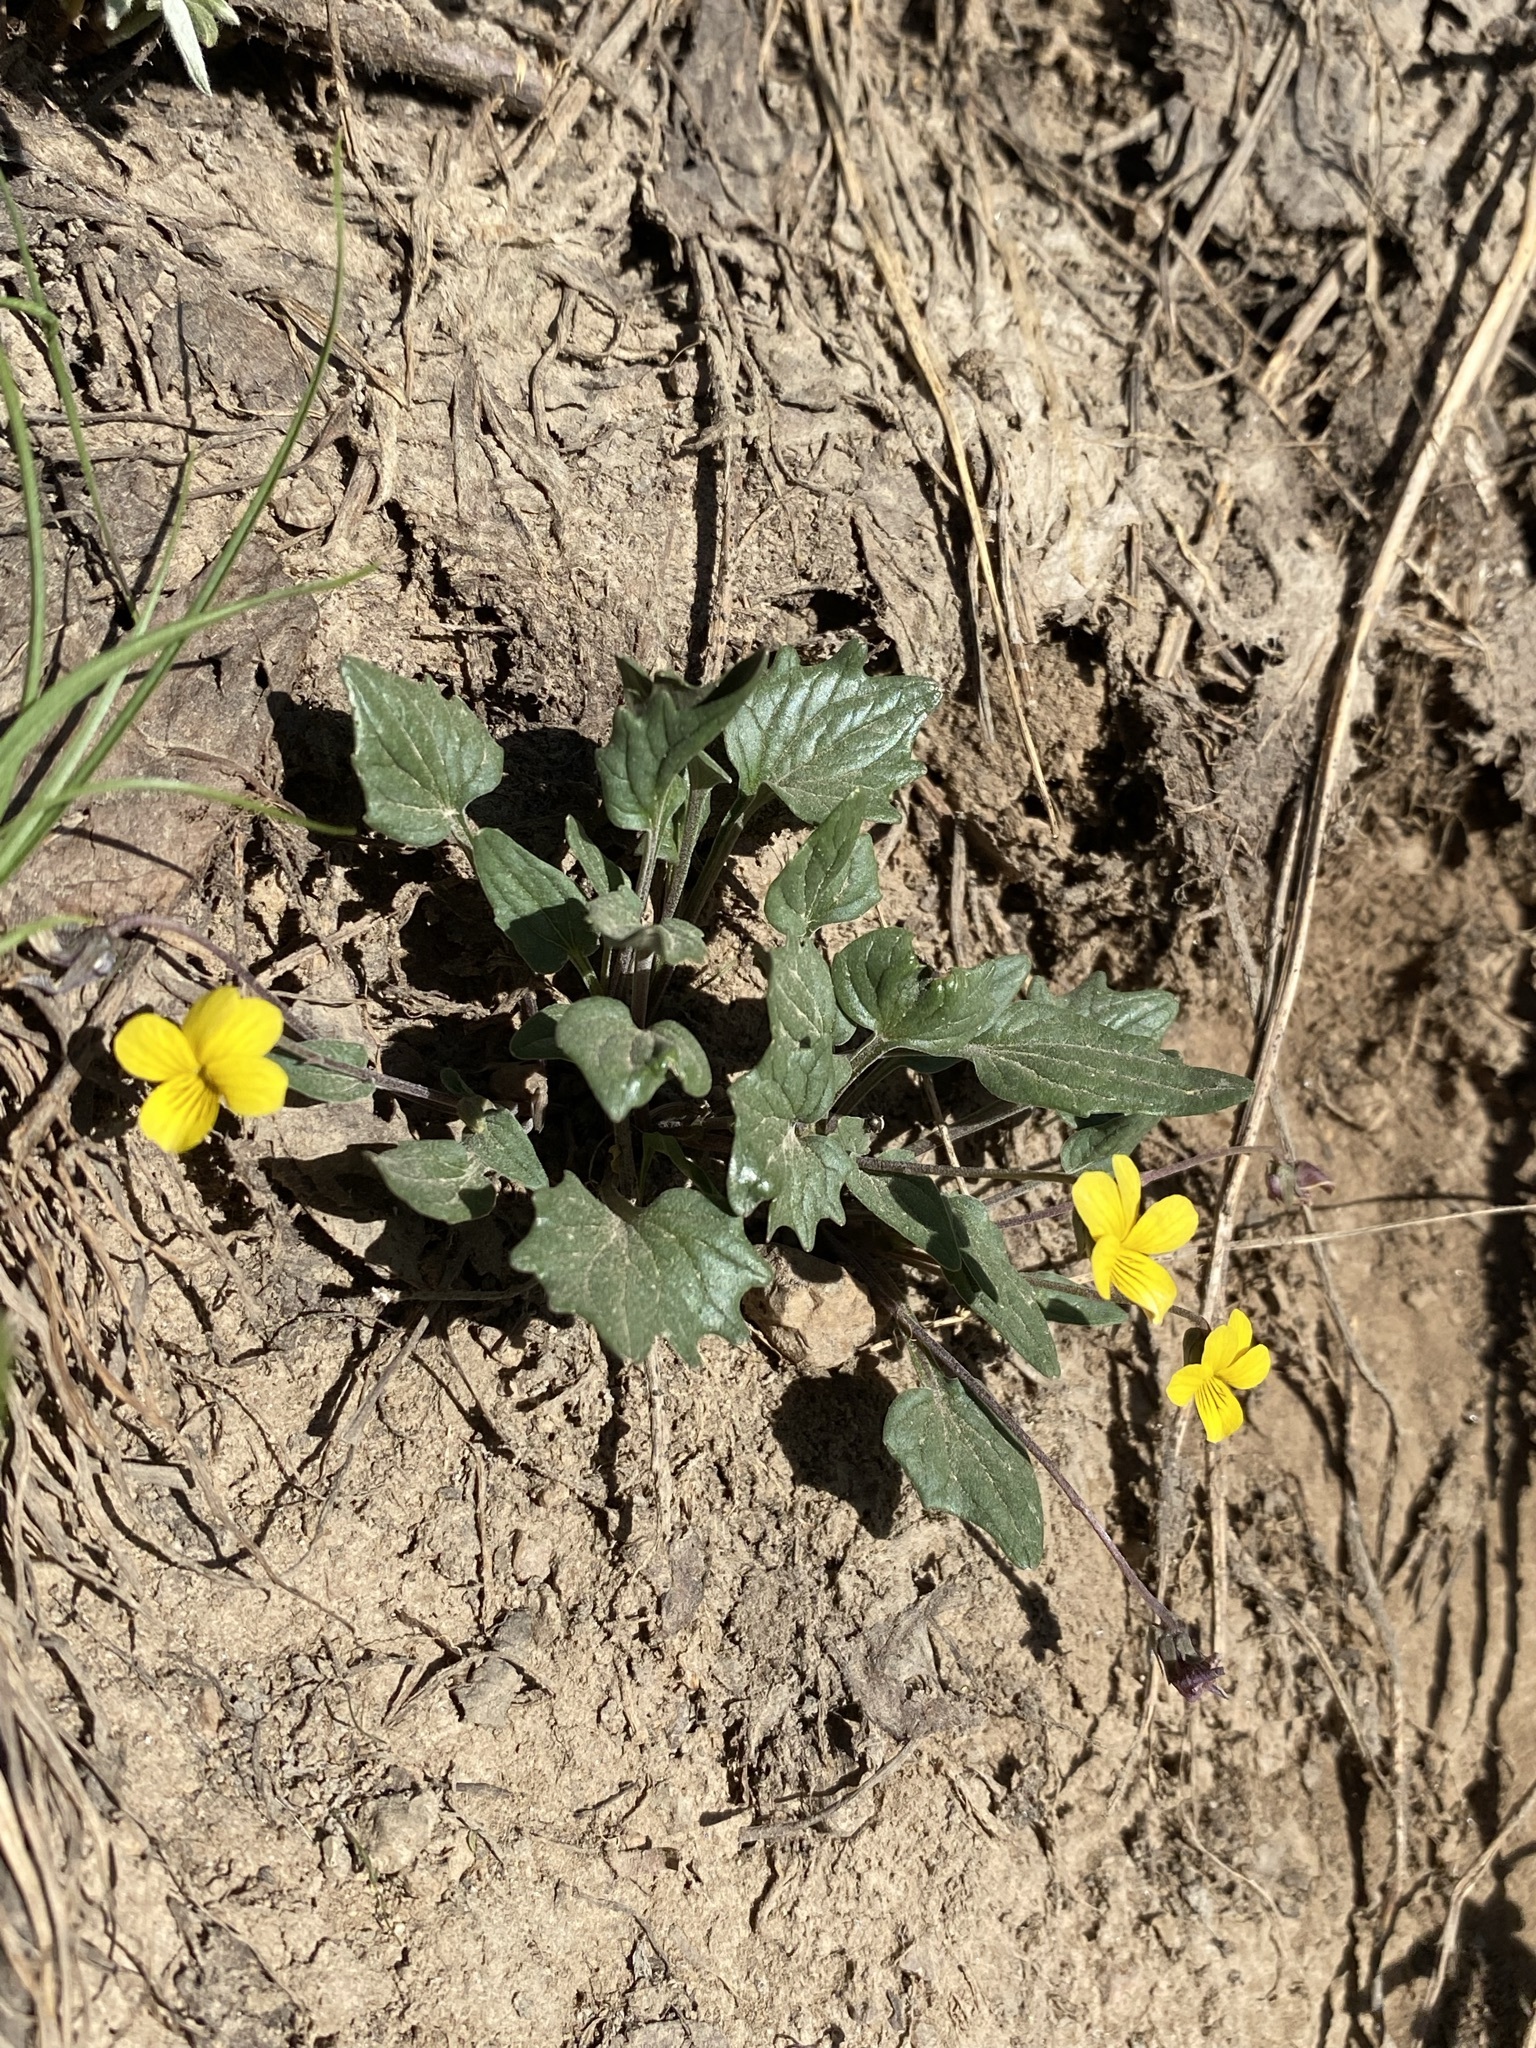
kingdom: Plantae
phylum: Tracheophyta
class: Magnoliopsida
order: Malpighiales
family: Violaceae
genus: Viola
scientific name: Viola purpurea
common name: Pine violet
